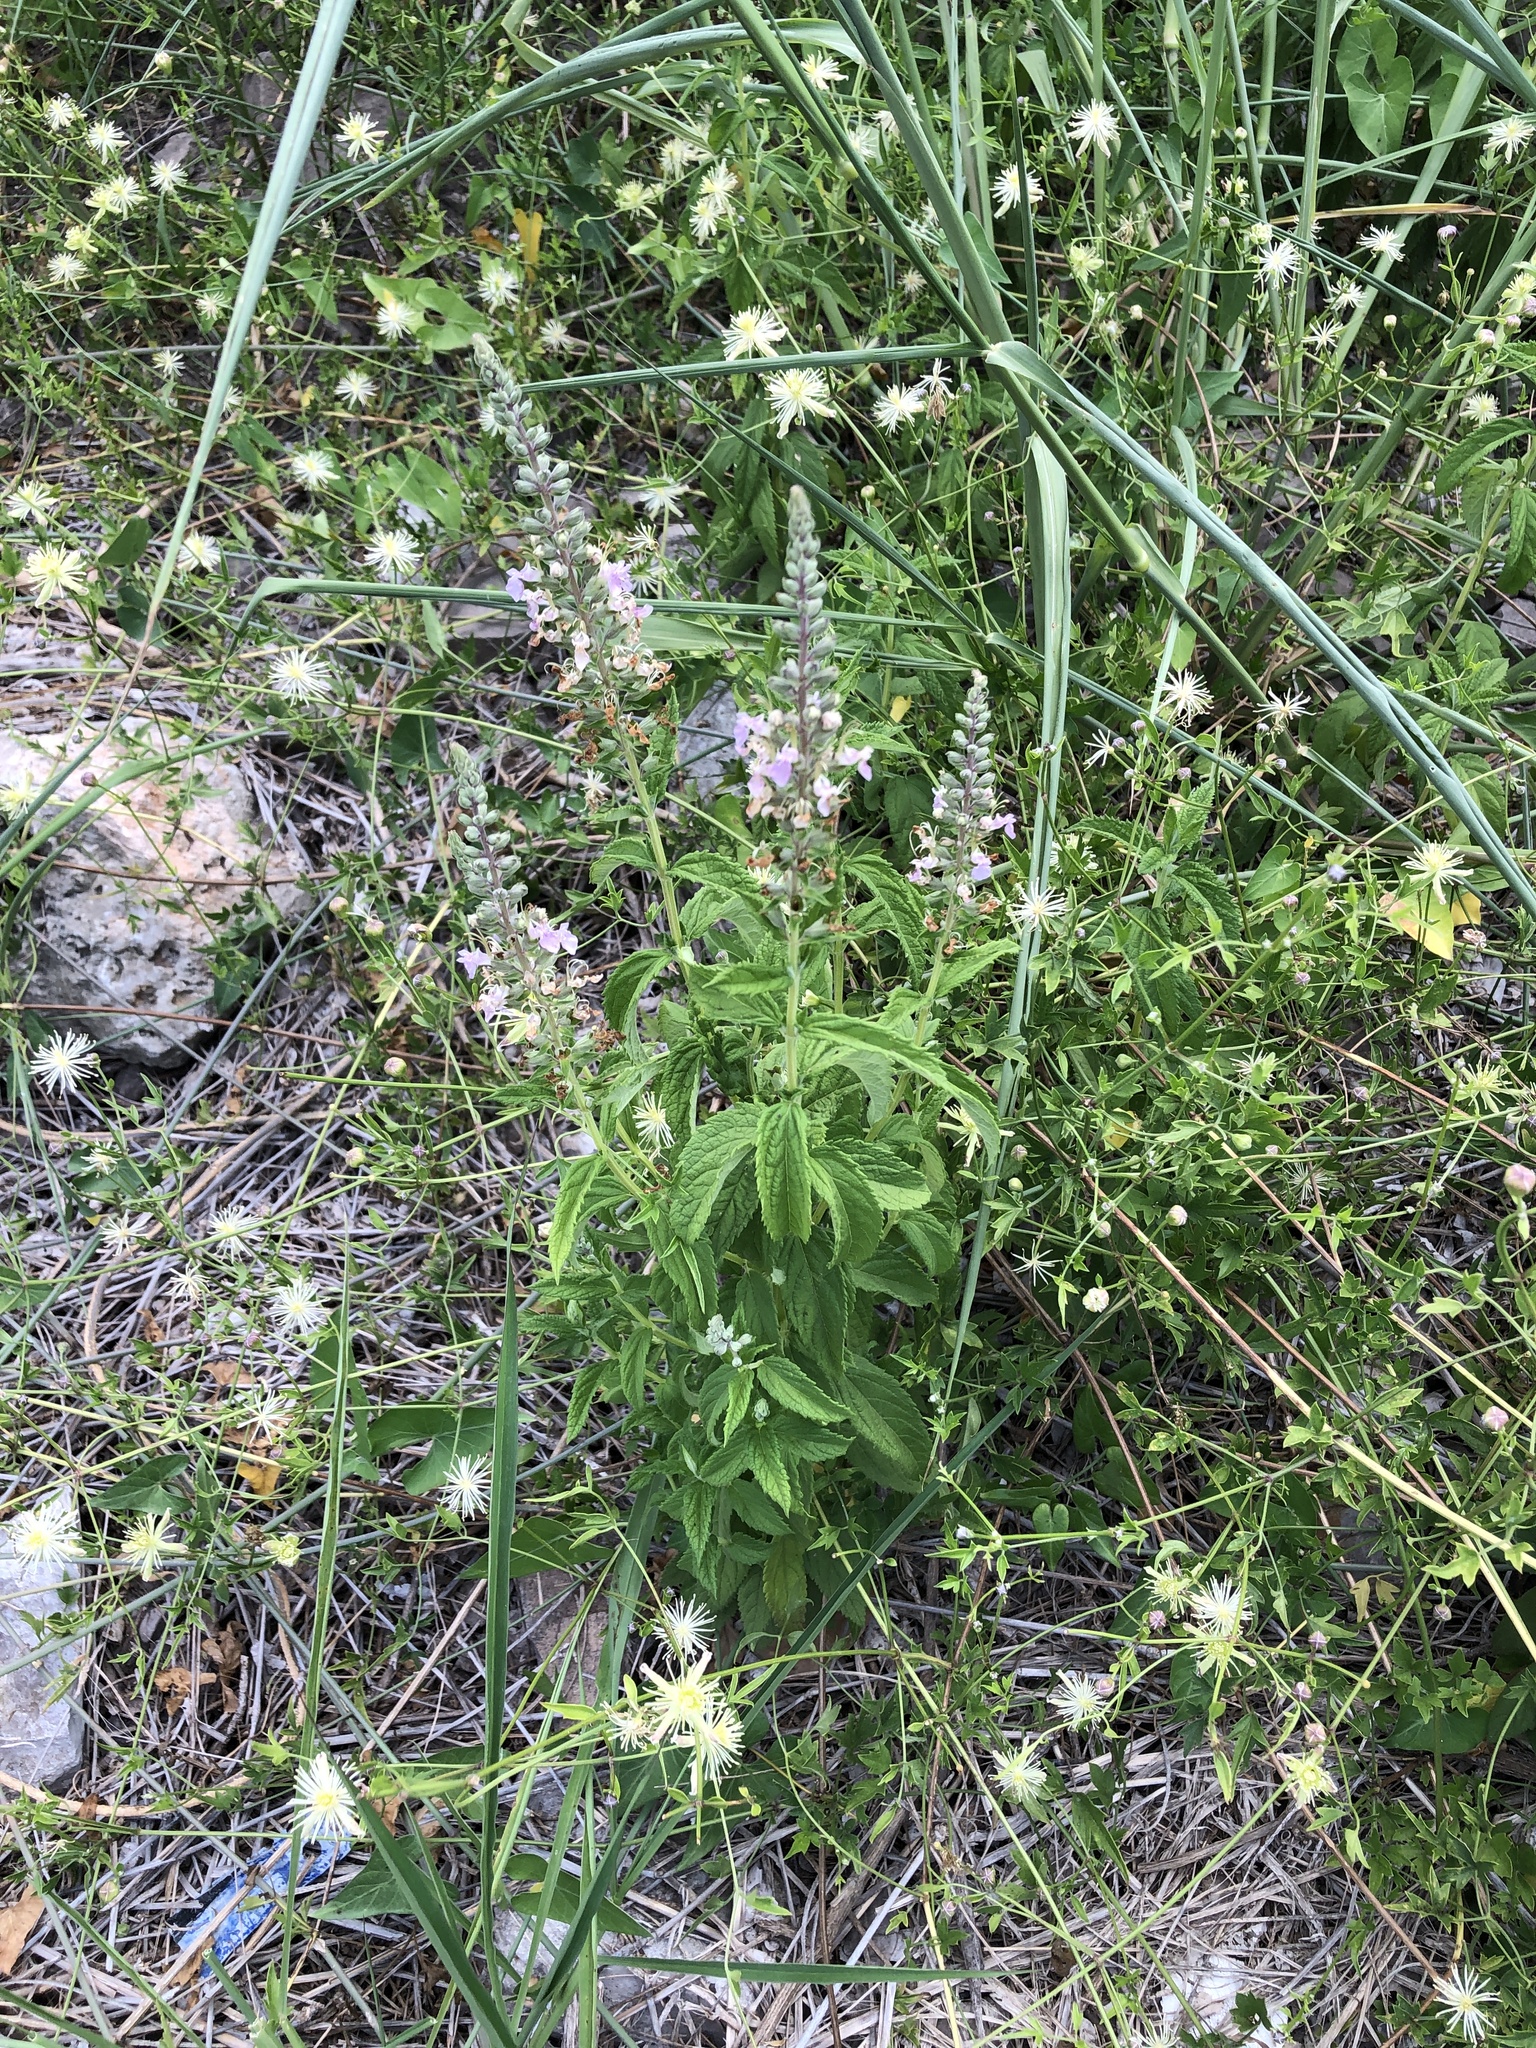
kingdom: Plantae
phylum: Tracheophyta
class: Magnoliopsida
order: Lamiales
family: Lamiaceae
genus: Teucrium
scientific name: Teucrium canadense
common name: American germander
